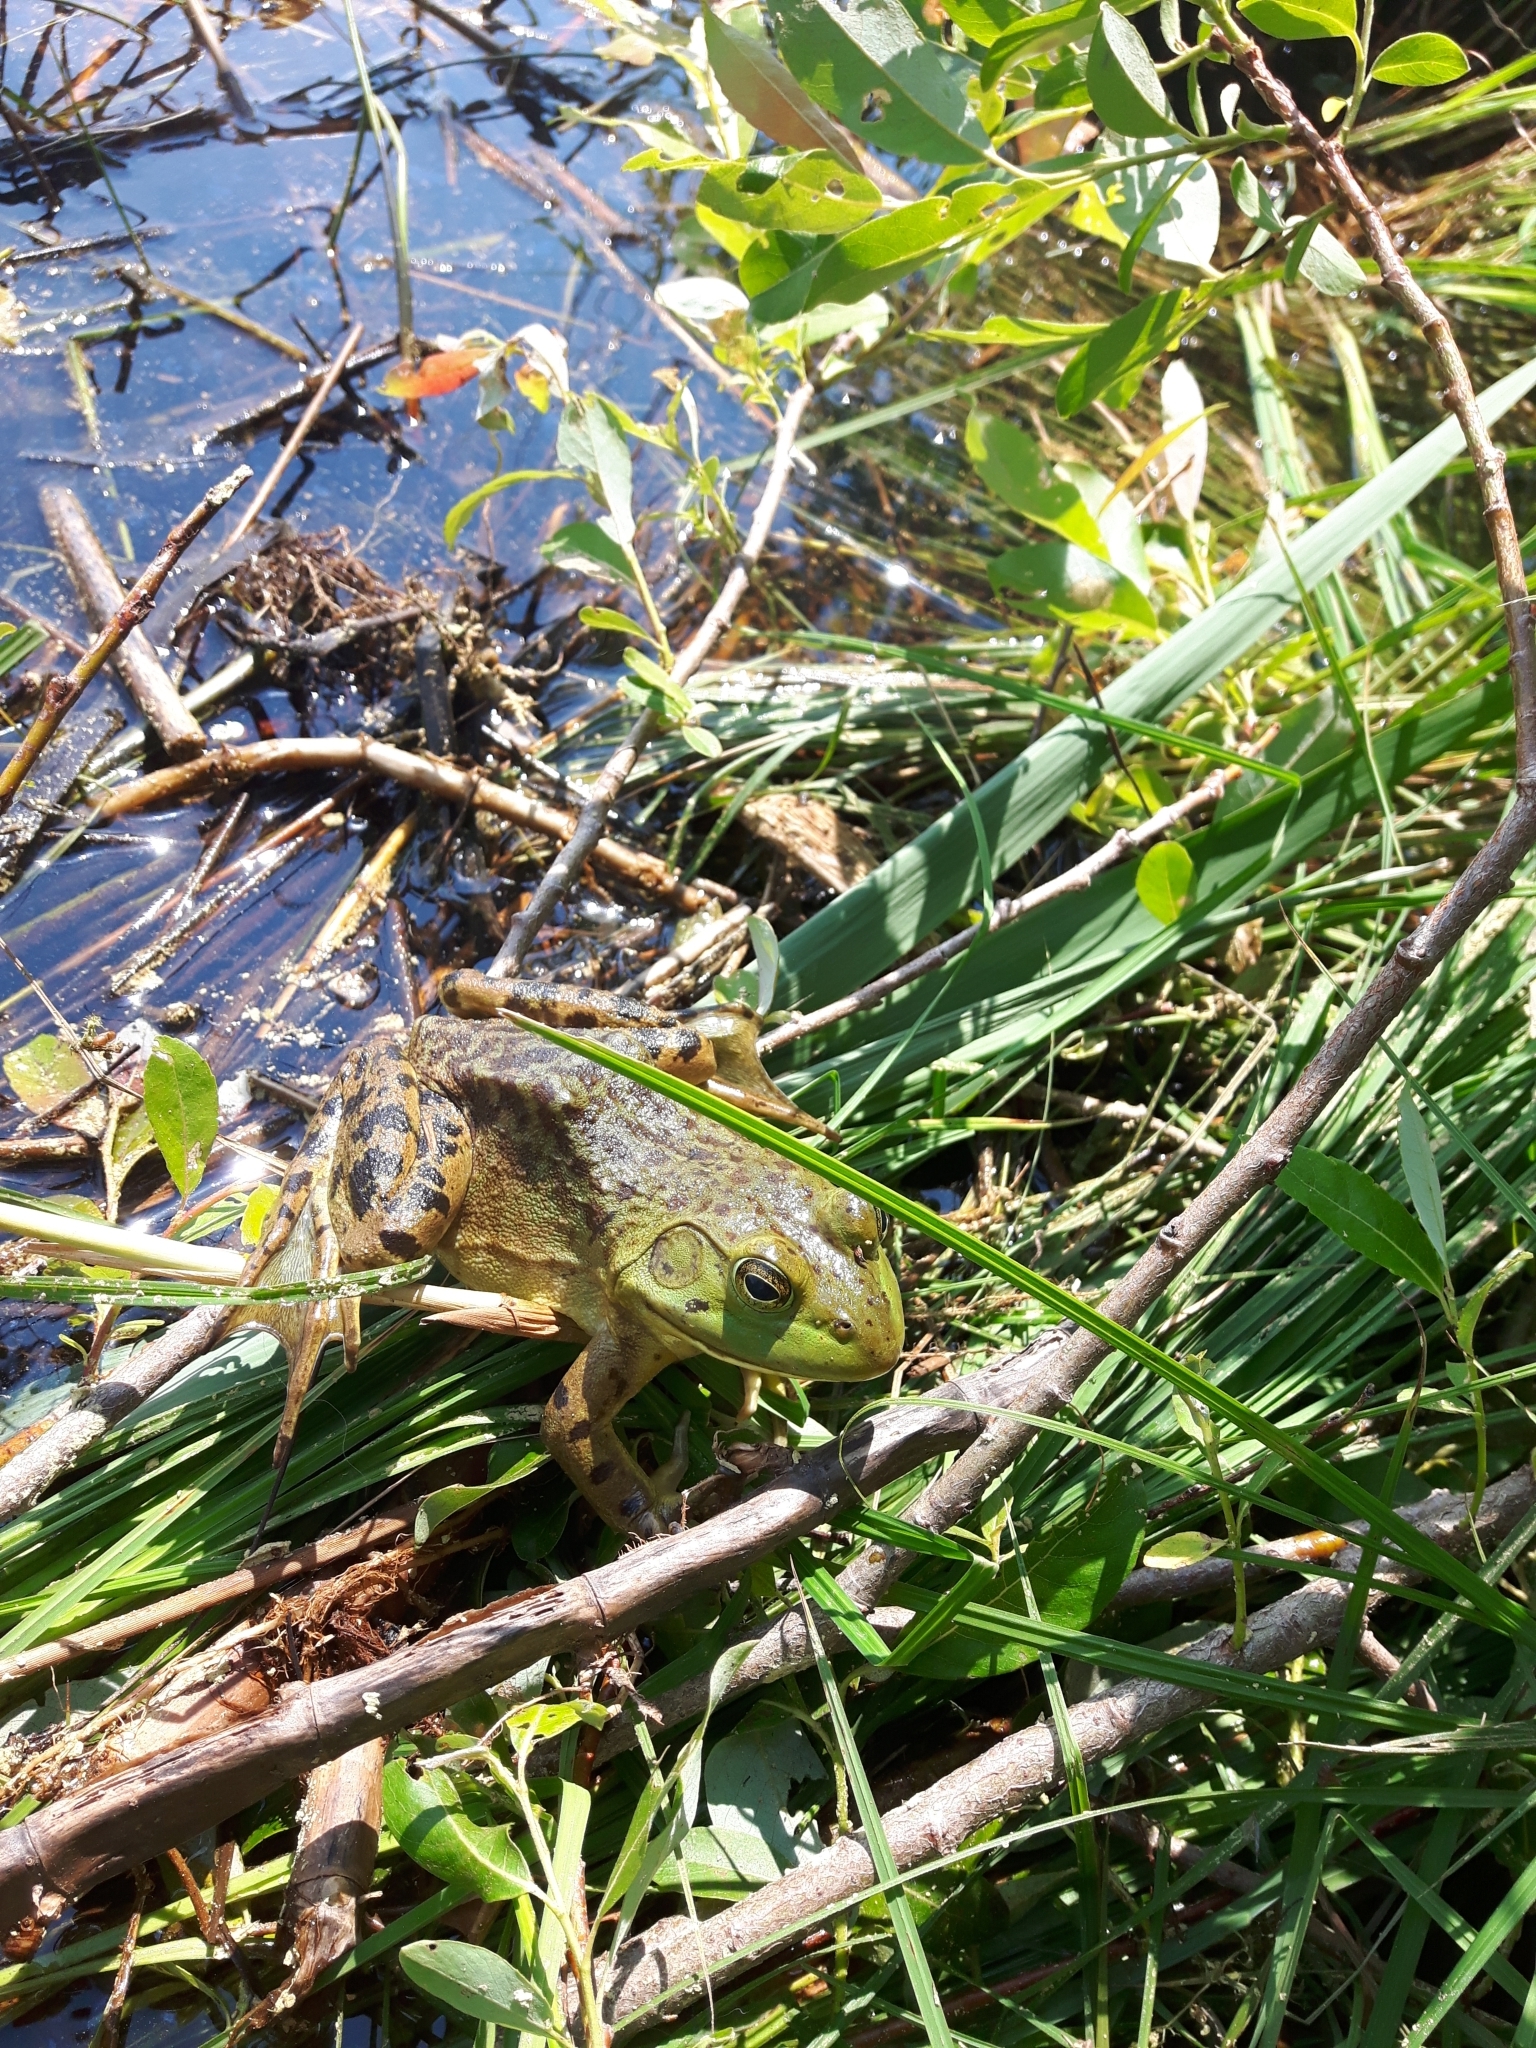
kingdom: Animalia
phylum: Chordata
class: Amphibia
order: Anura
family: Ranidae
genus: Lithobates
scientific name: Lithobates catesbeianus
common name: American bullfrog
